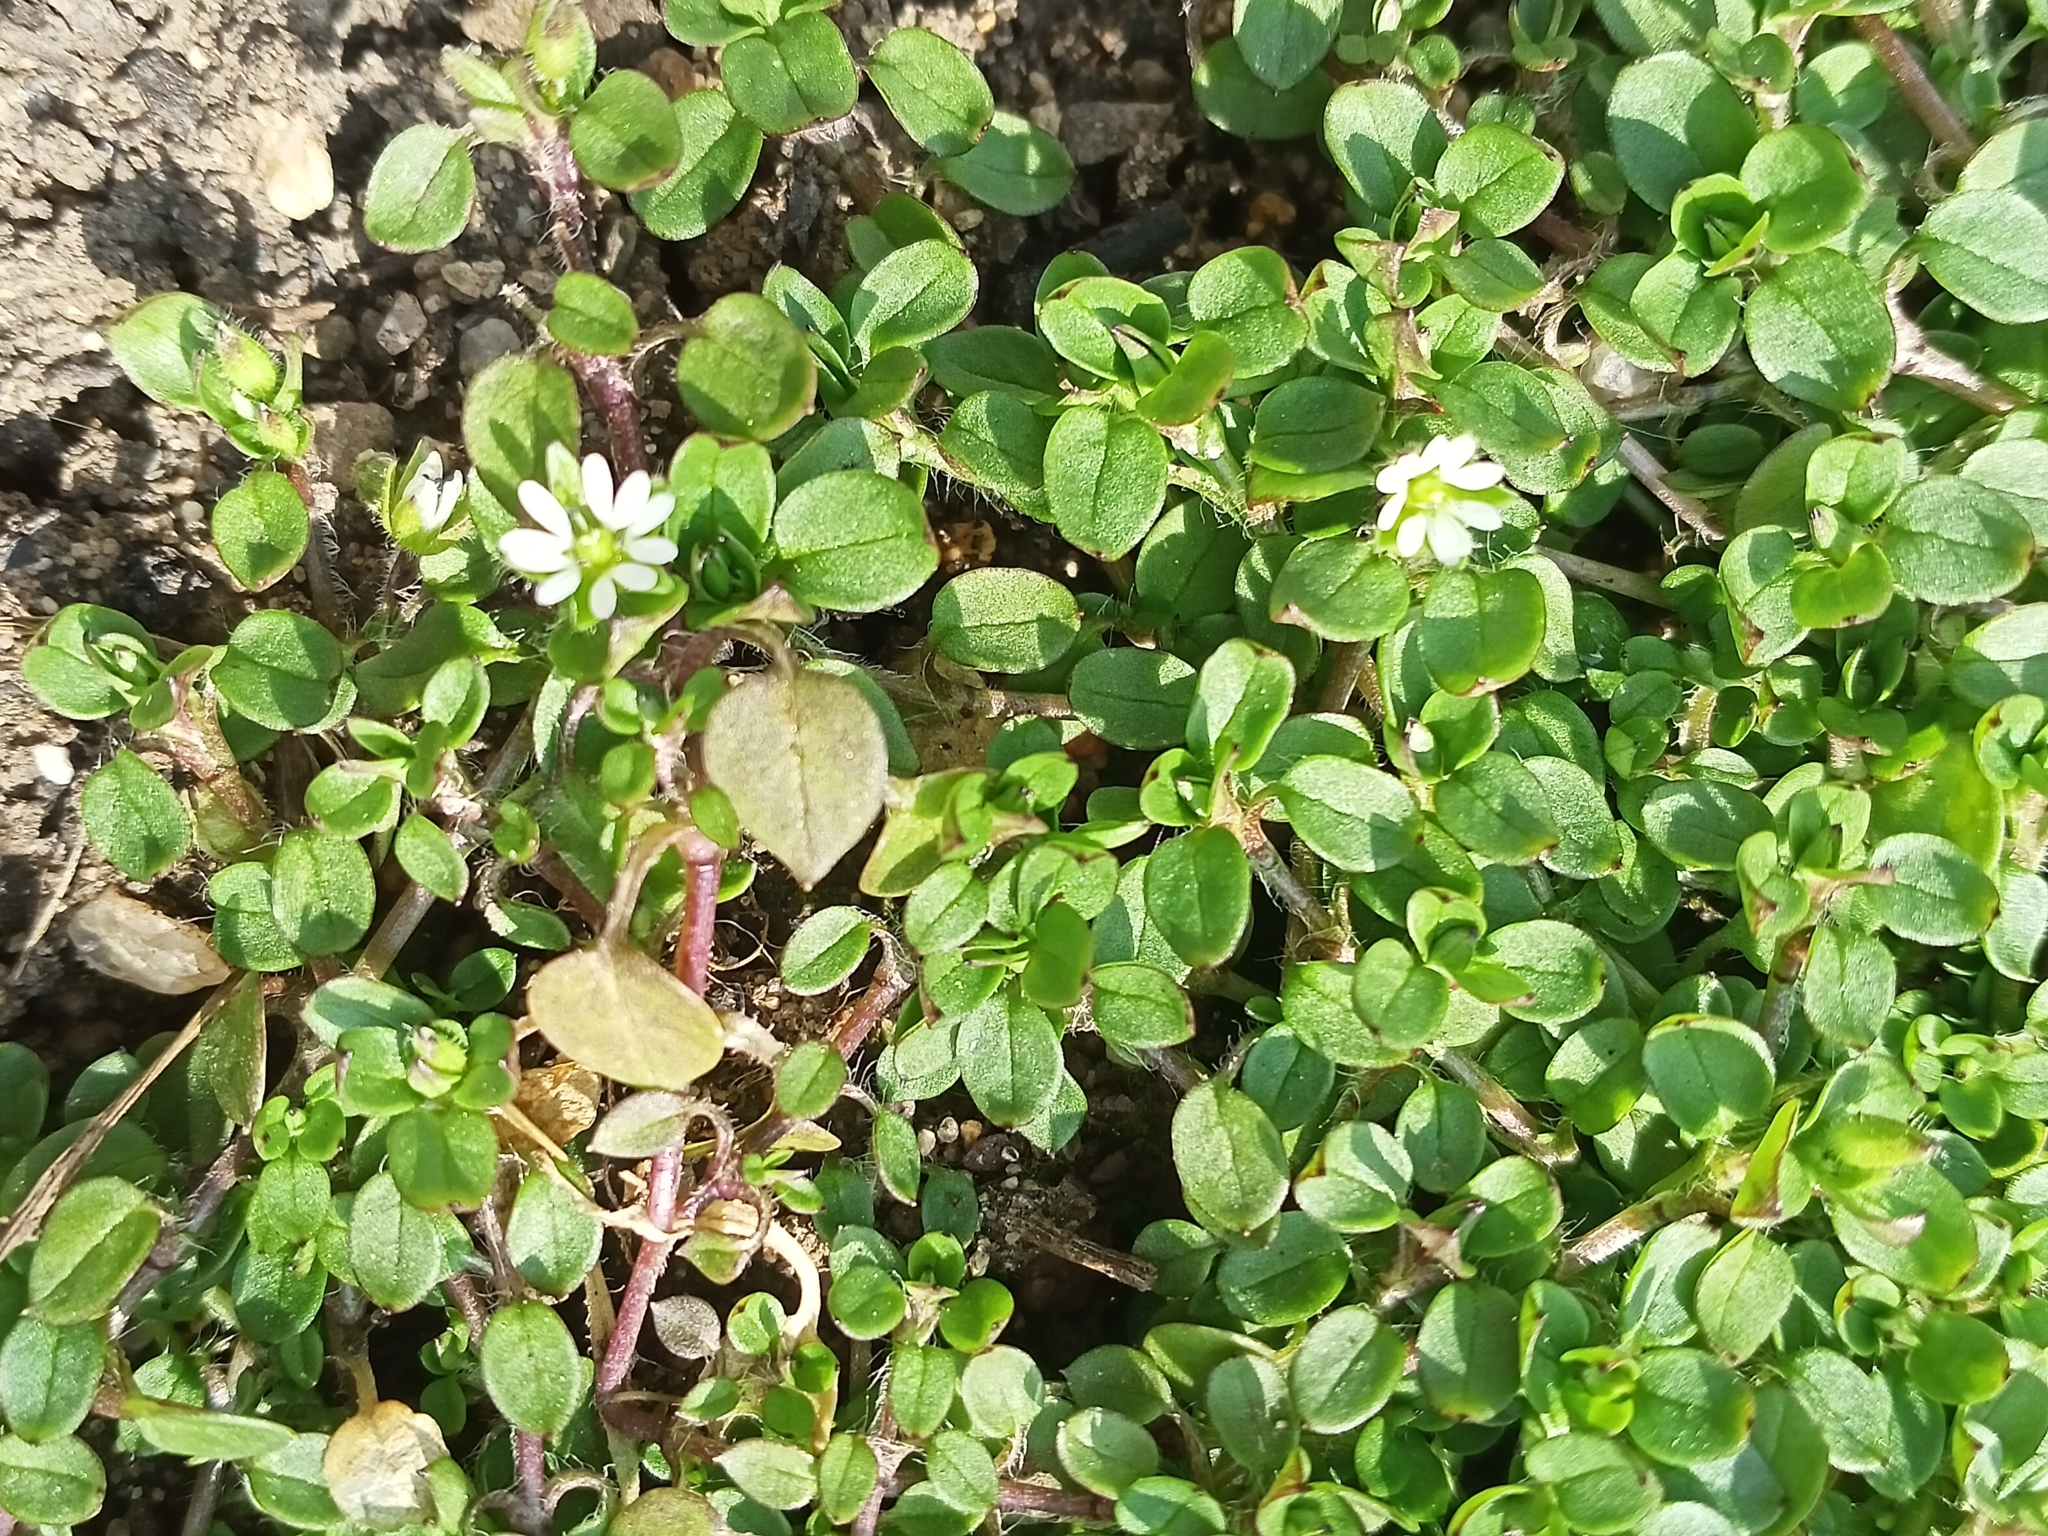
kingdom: Plantae
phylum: Tracheophyta
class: Magnoliopsida
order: Caryophyllales
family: Caryophyllaceae
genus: Stellaria
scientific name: Stellaria media
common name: Common chickweed
